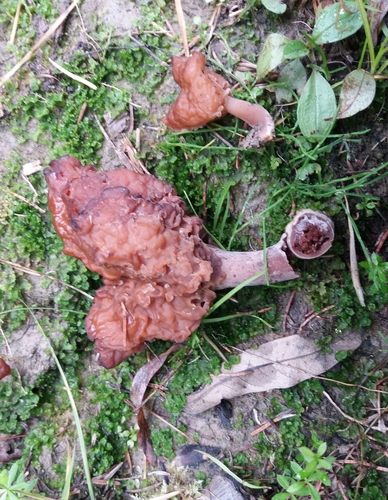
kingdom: Fungi
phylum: Ascomycota
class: Pezizomycetes
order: Pezizales
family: Discinaceae
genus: Gyromitra
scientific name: Gyromitra infula
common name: Pouched false morel
